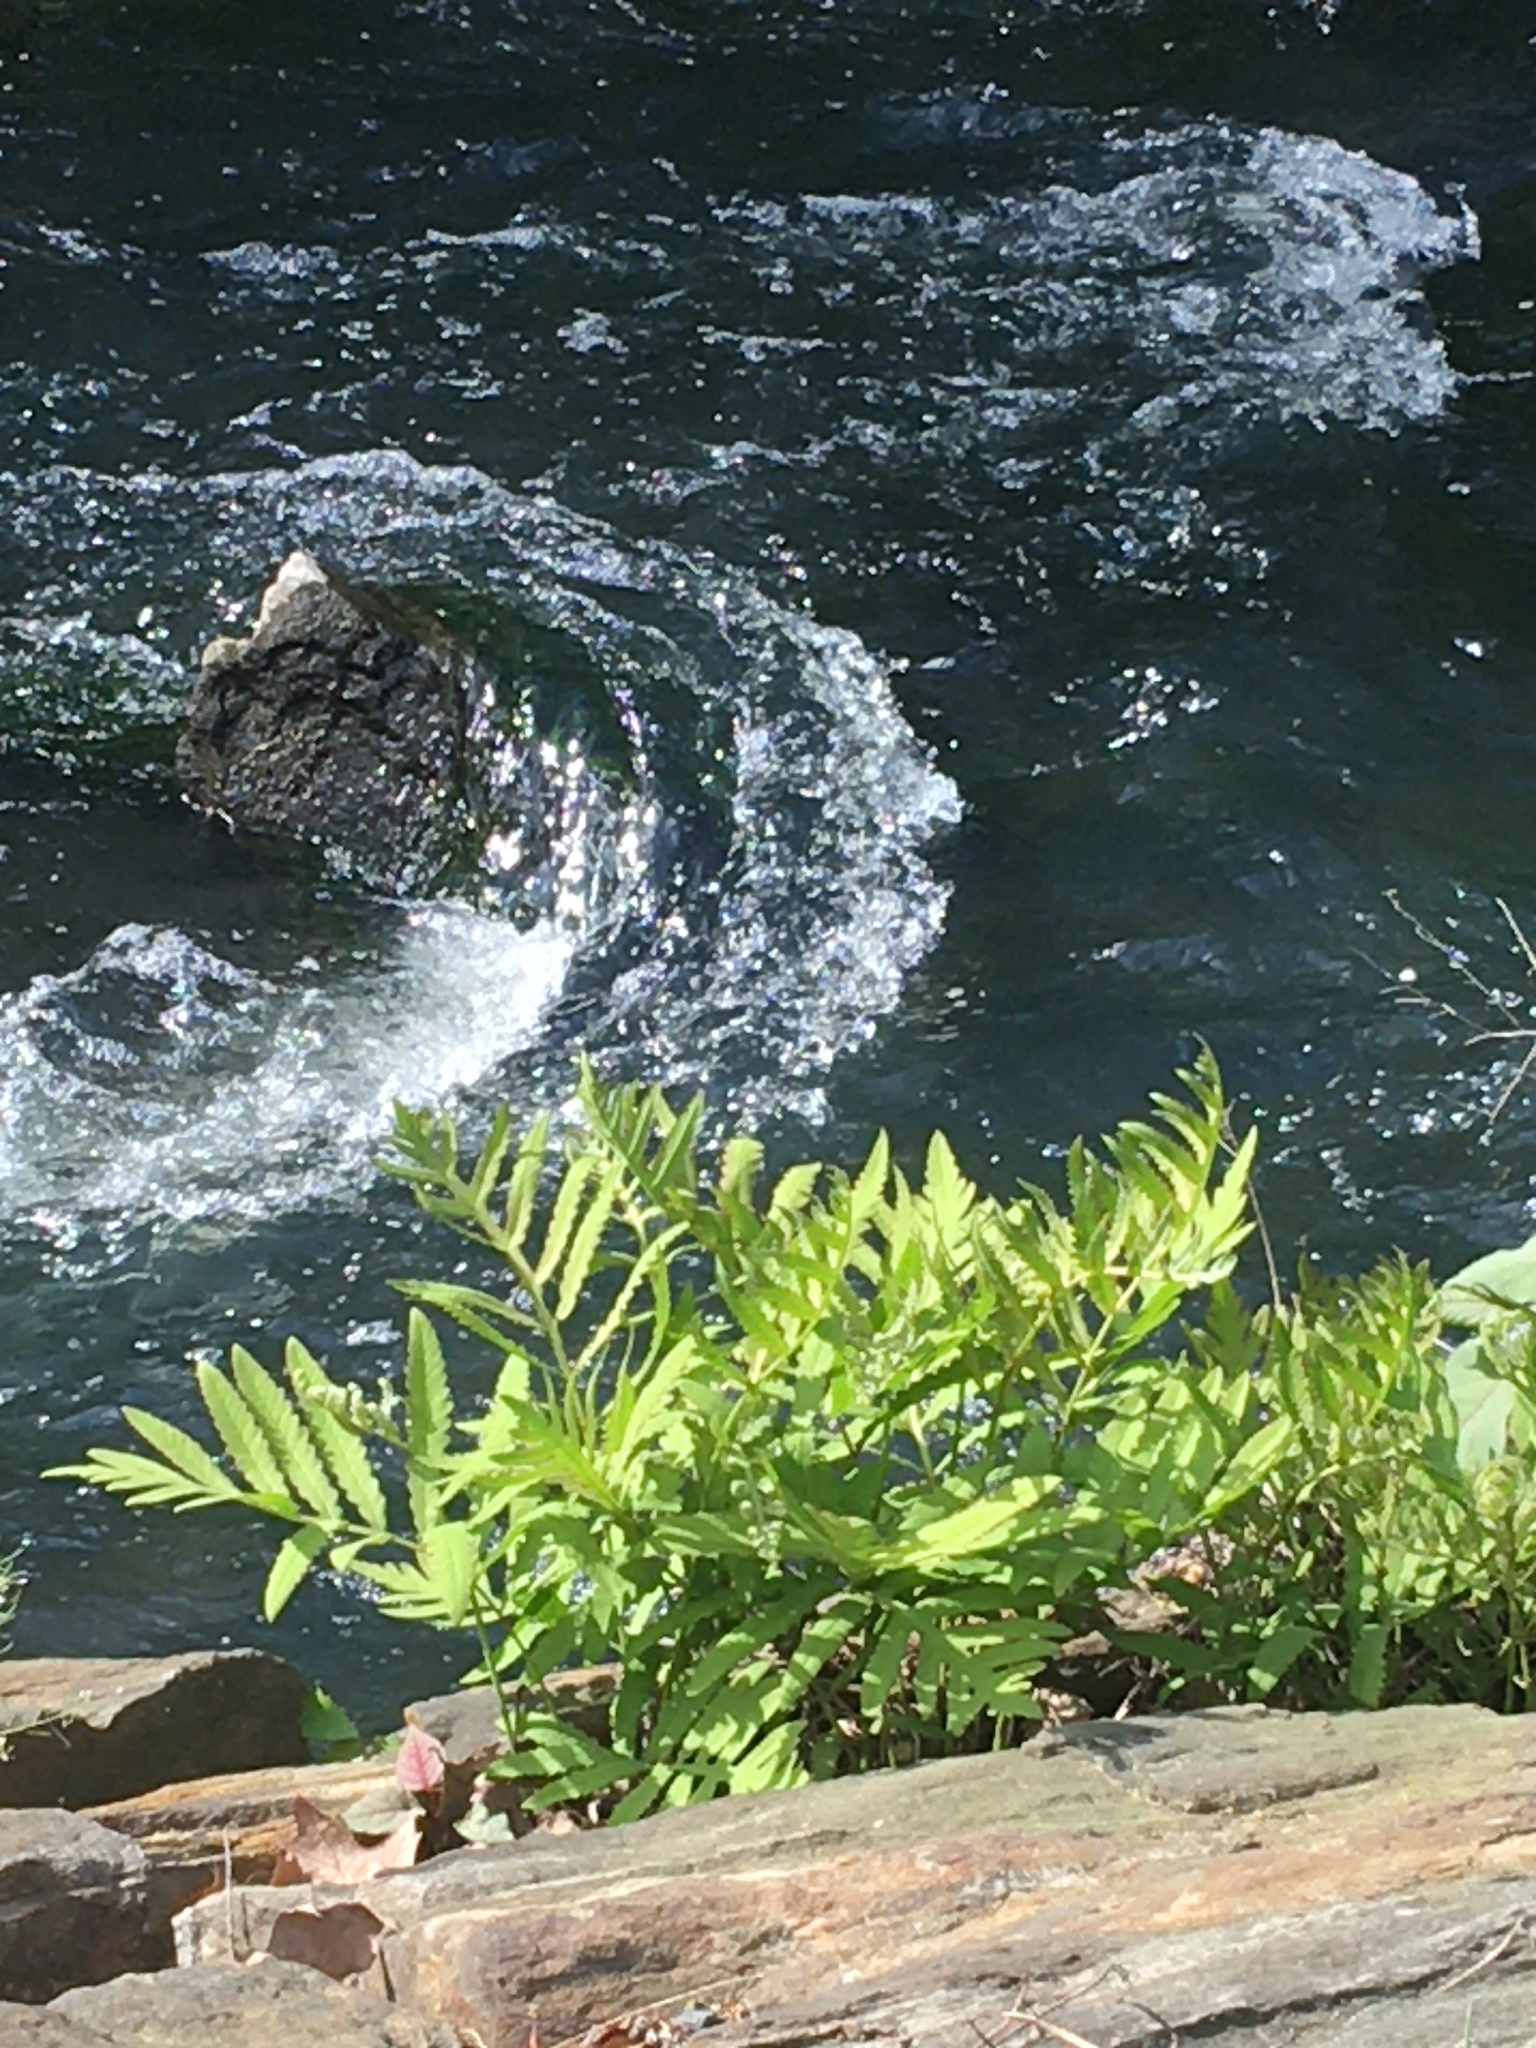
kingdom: Plantae
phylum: Tracheophyta
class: Polypodiopsida
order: Polypodiales
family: Onocleaceae
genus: Onoclea
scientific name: Onoclea sensibilis
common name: Sensitive fern
